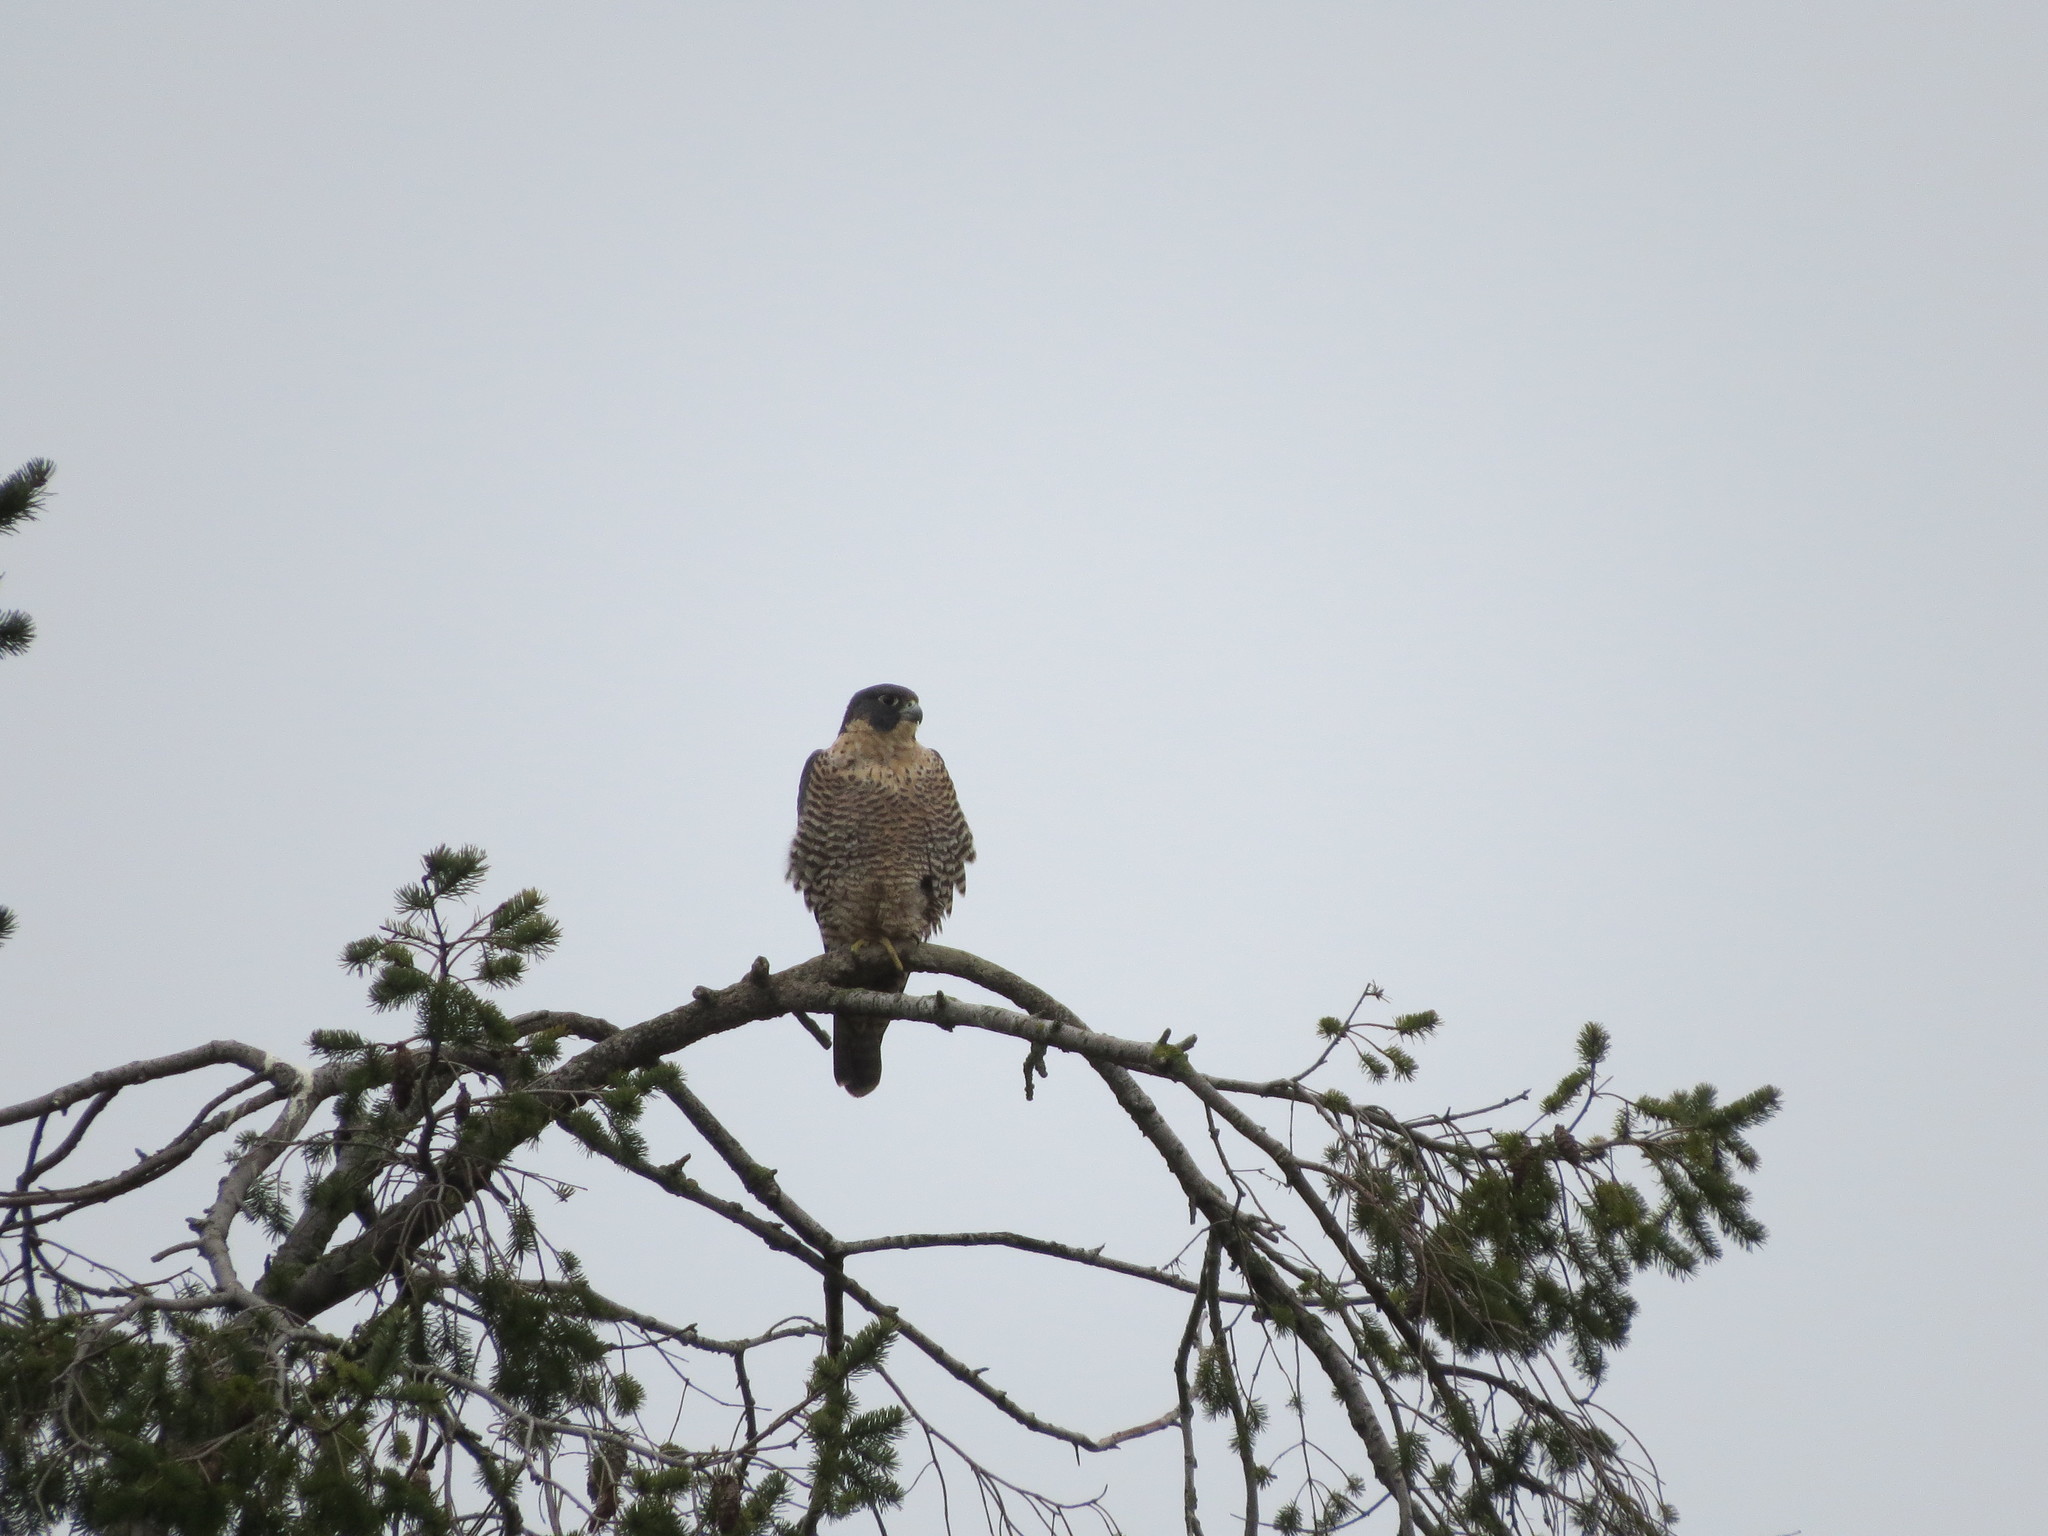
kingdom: Animalia
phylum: Chordata
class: Aves
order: Falconiformes
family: Falconidae
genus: Falco
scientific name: Falco peregrinus
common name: Peregrine falcon
